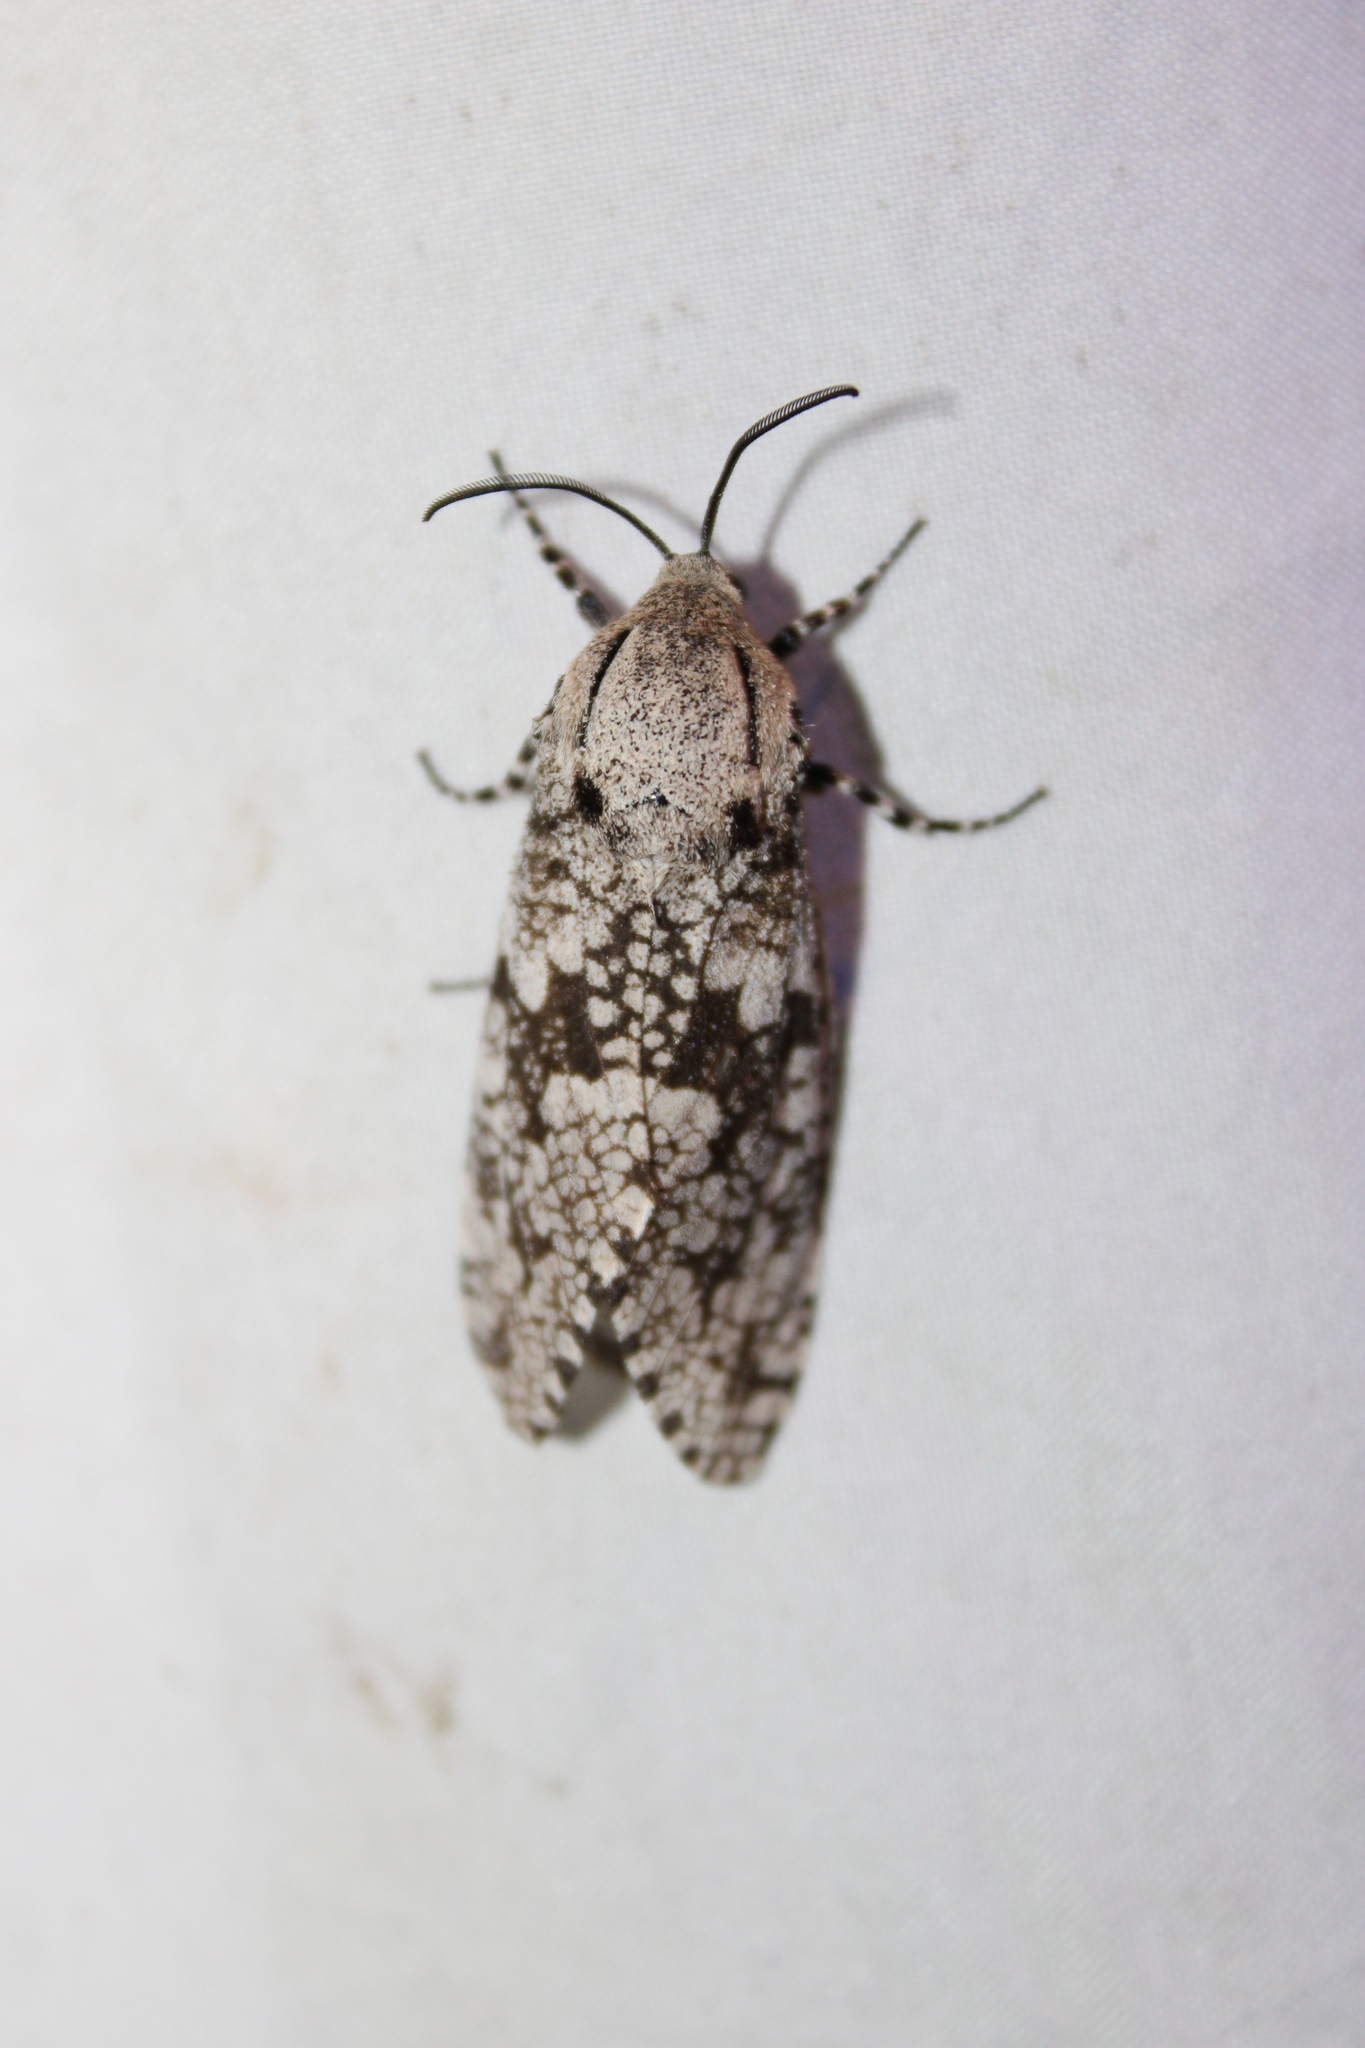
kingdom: Animalia
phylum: Arthropoda
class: Insecta
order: Lepidoptera
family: Cossidae
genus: Prionoxystus
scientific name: Prionoxystus robiniae
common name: Carpenterworm
